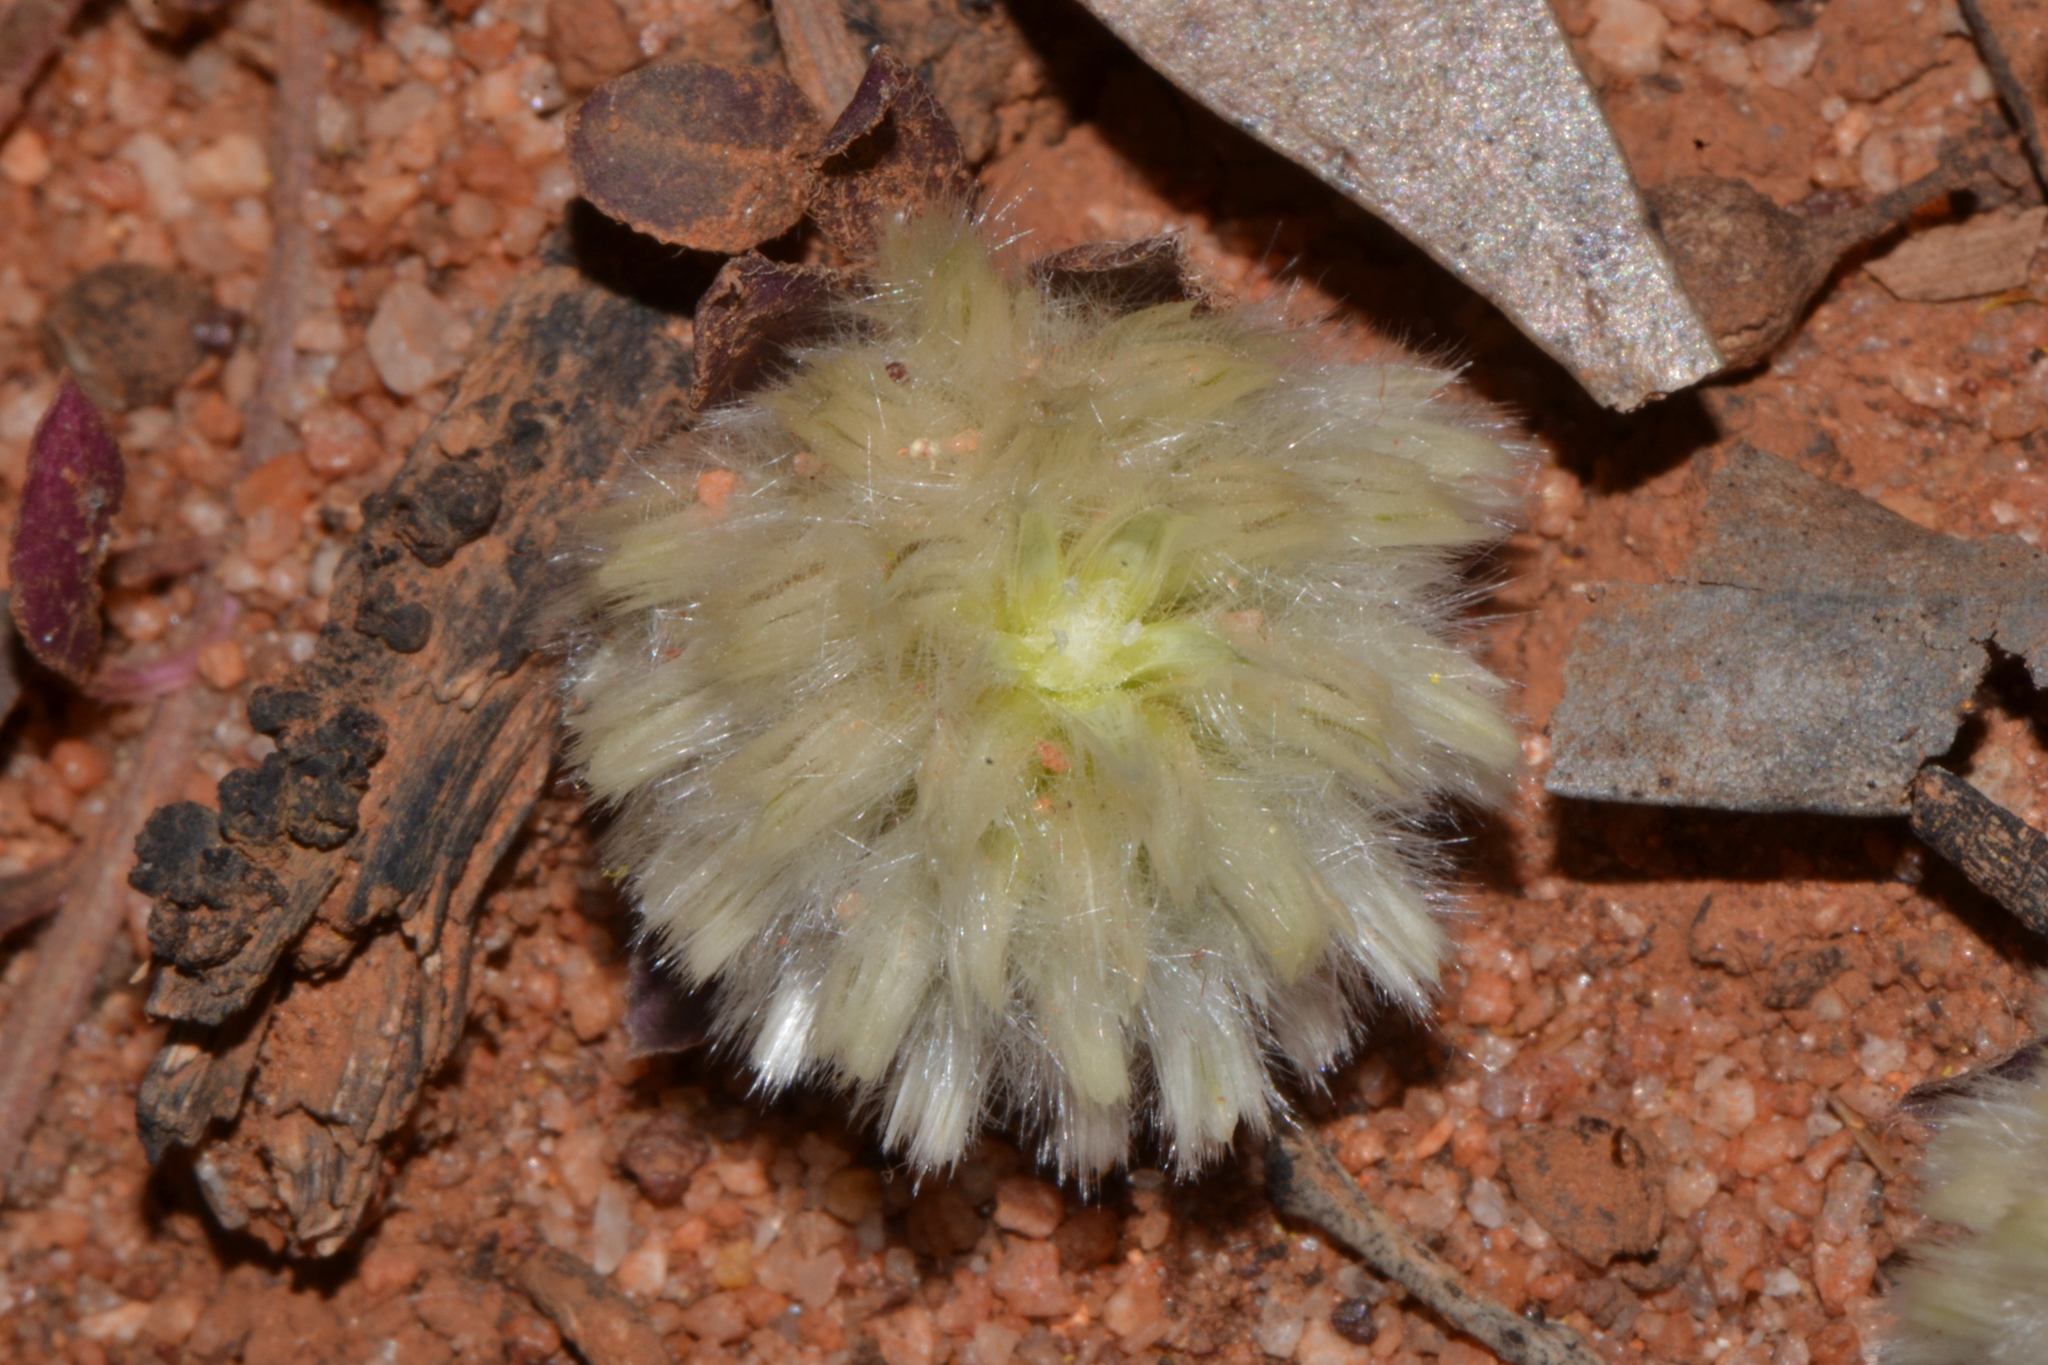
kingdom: Plantae
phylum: Tracheophyta
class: Magnoliopsida
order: Caryophyllales
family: Amaranthaceae
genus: Ptilotus
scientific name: Ptilotus holosericeus
